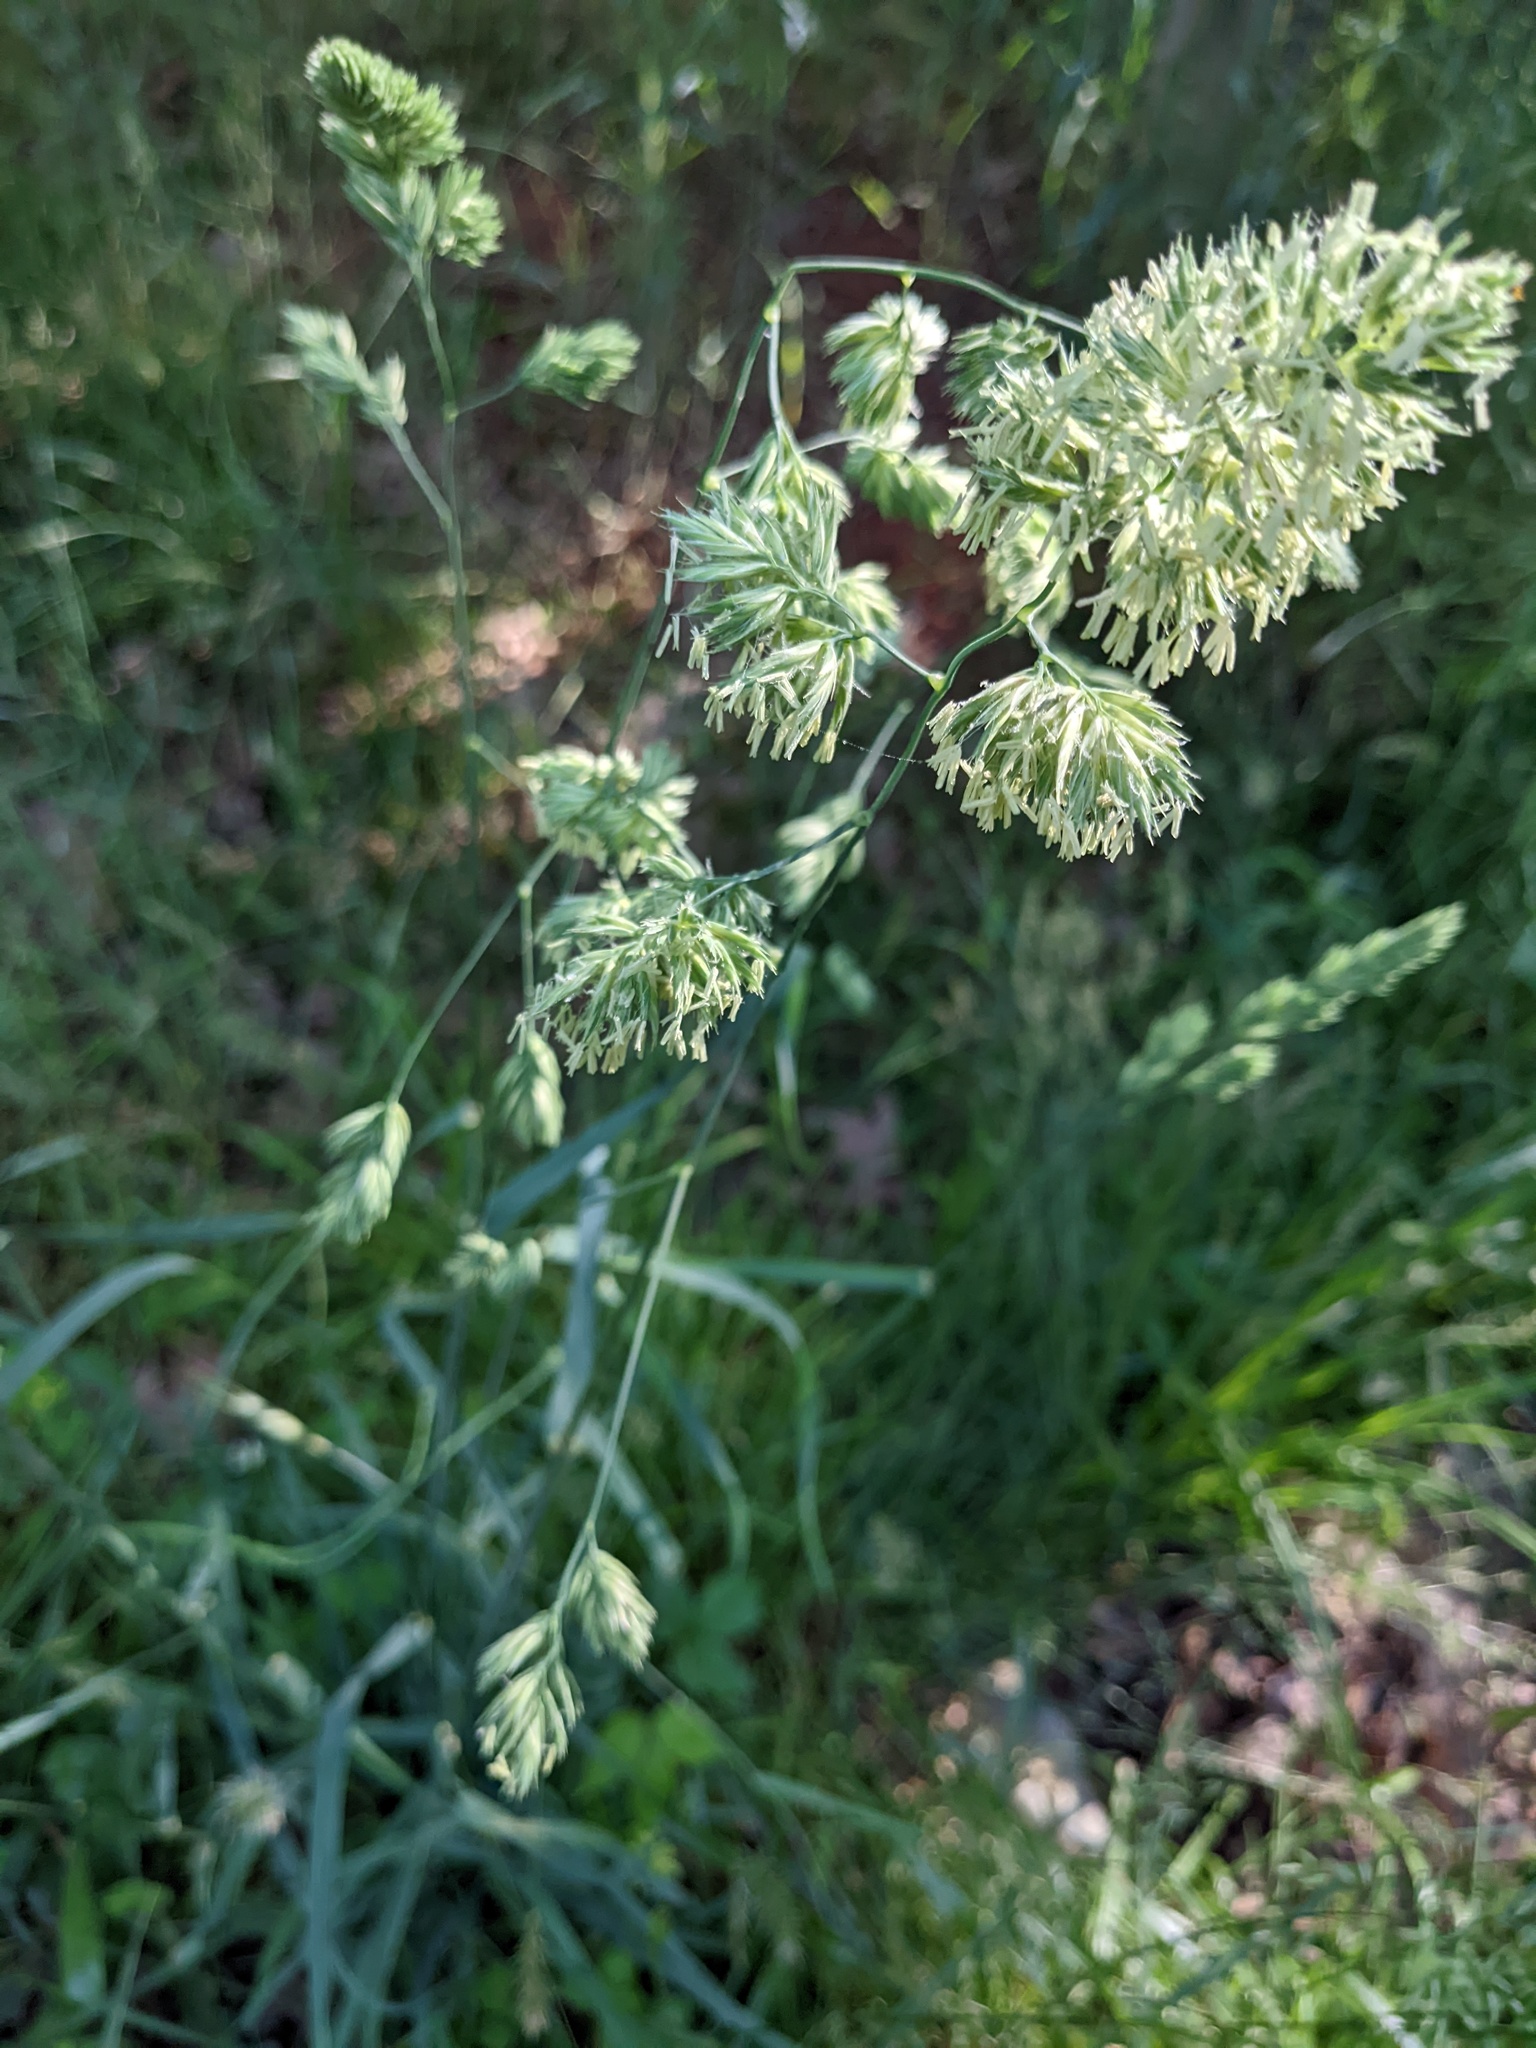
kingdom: Plantae
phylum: Tracheophyta
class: Liliopsida
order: Poales
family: Poaceae
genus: Dactylis
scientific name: Dactylis glomerata
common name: Orchardgrass
